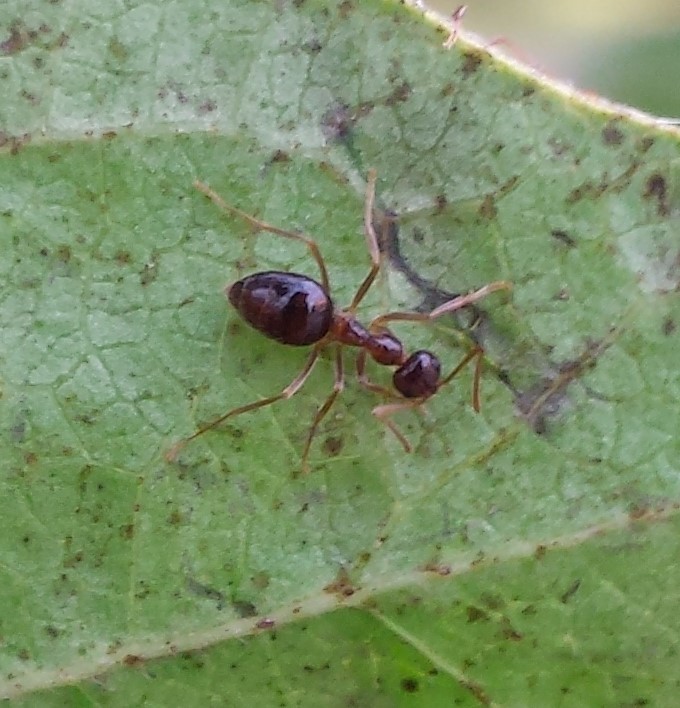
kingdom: Animalia
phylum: Arthropoda
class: Insecta
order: Hymenoptera
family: Formicidae
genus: Prenolepis
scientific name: Prenolepis imparis
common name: Small honey ant
